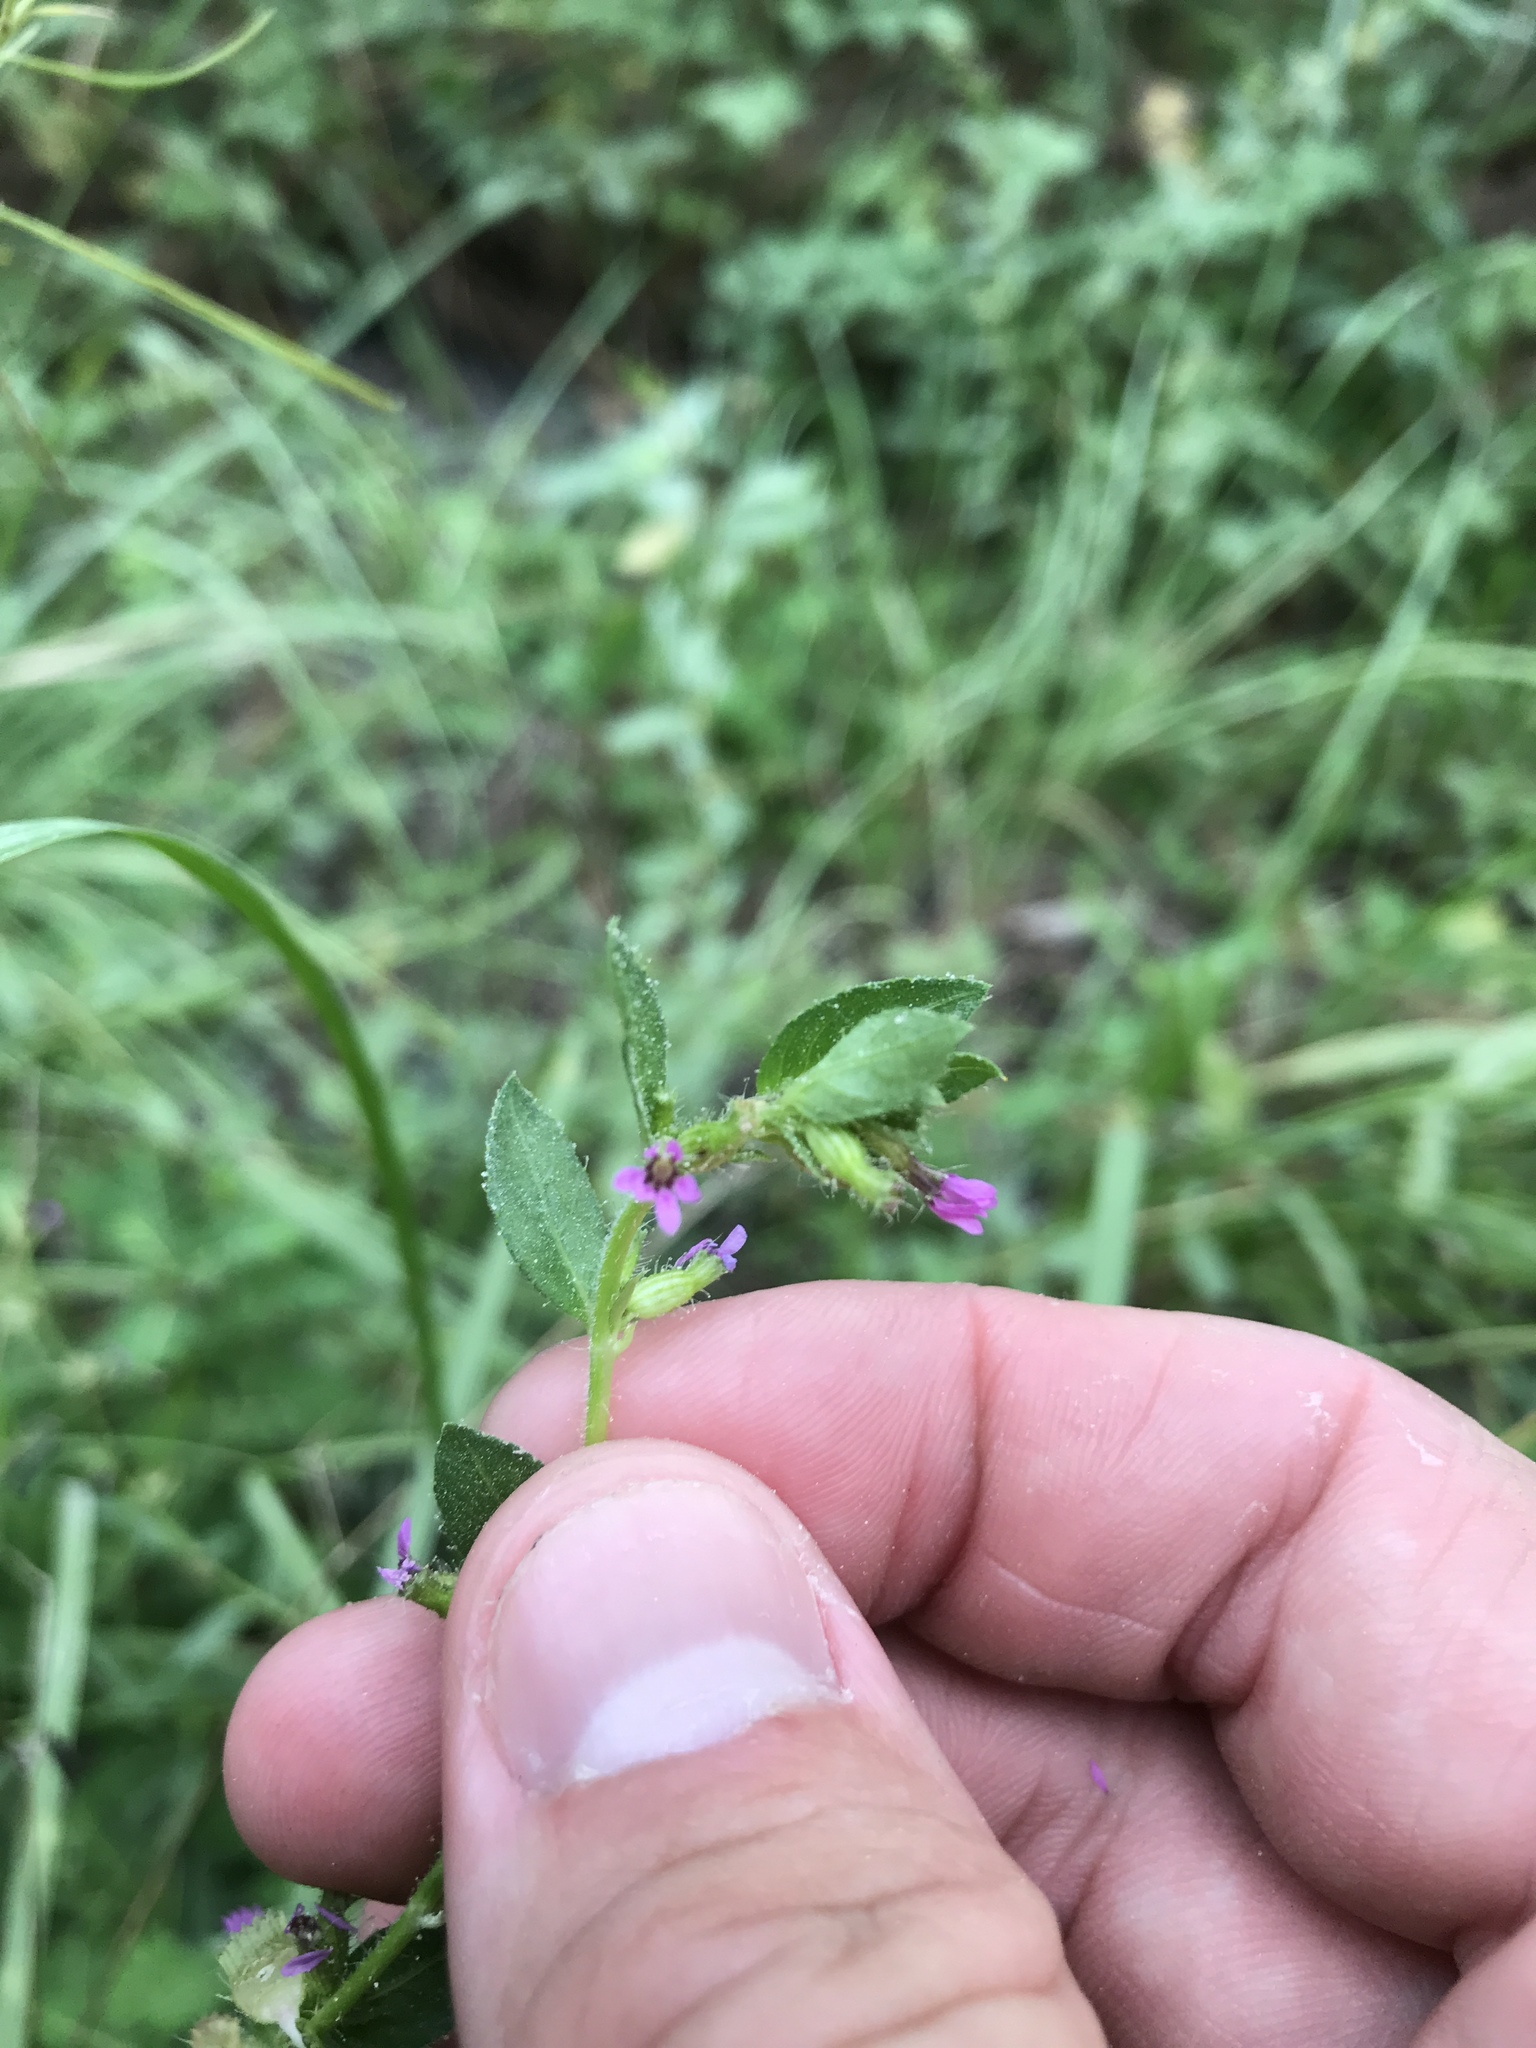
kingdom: Plantae
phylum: Tracheophyta
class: Magnoliopsida
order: Myrtales
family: Lythraceae
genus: Cuphea
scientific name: Cuphea carthagenensis
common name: Colombian waxweed
